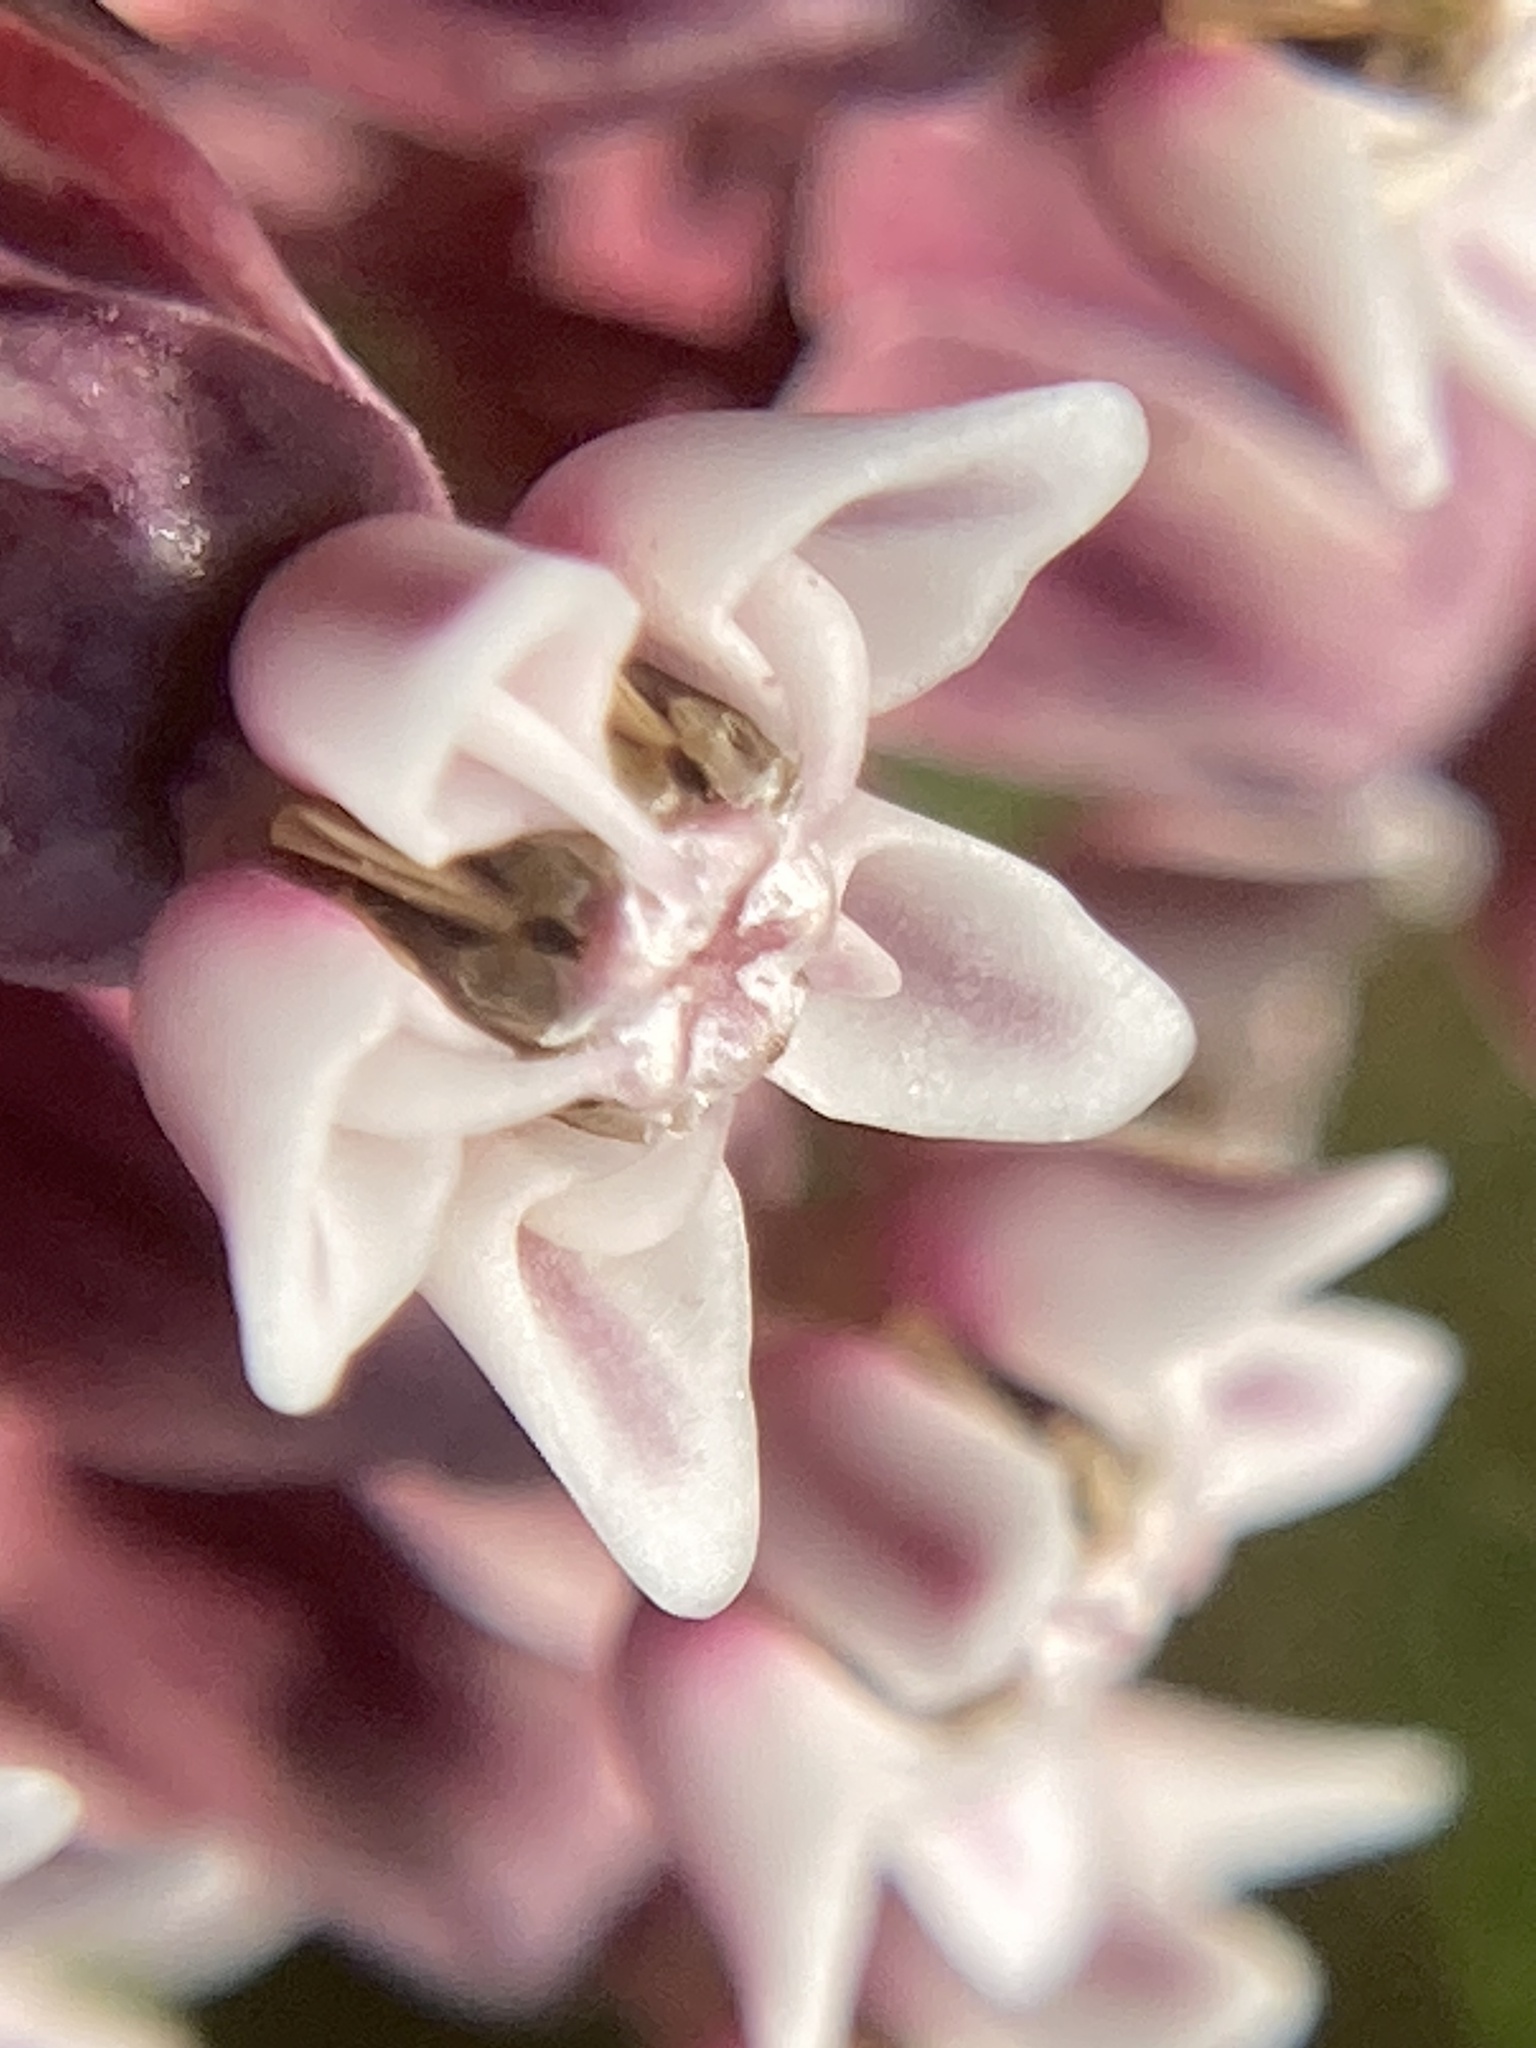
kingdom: Plantae
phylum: Tracheophyta
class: Magnoliopsida
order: Gentianales
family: Apocynaceae
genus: Asclepias
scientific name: Asclepias syriaca
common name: Common milkweed
